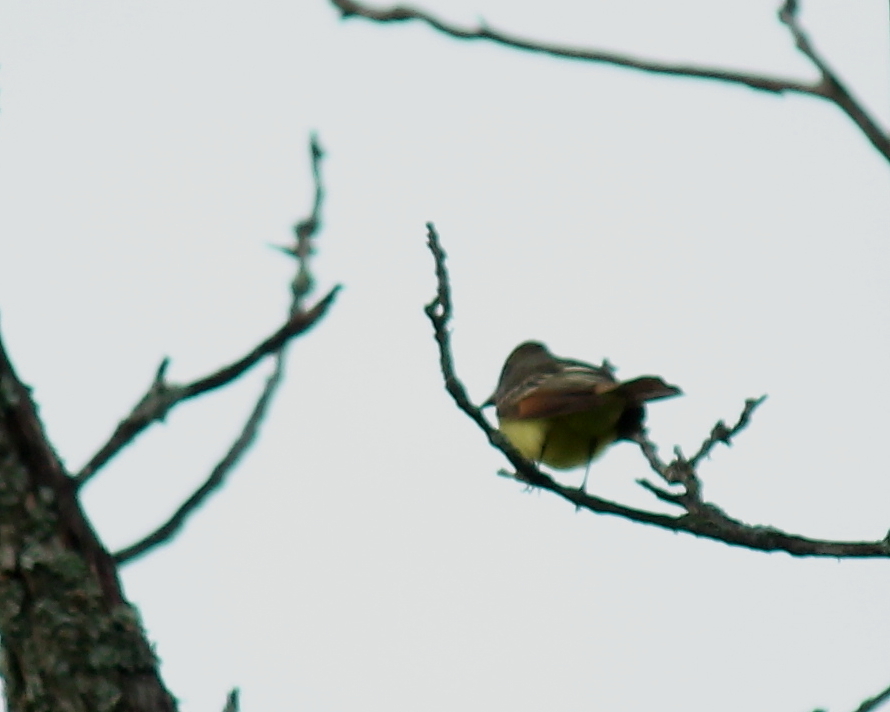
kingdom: Animalia
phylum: Chordata
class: Aves
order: Passeriformes
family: Tyrannidae
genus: Myiarchus
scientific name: Myiarchus crinitus
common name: Great crested flycatcher
